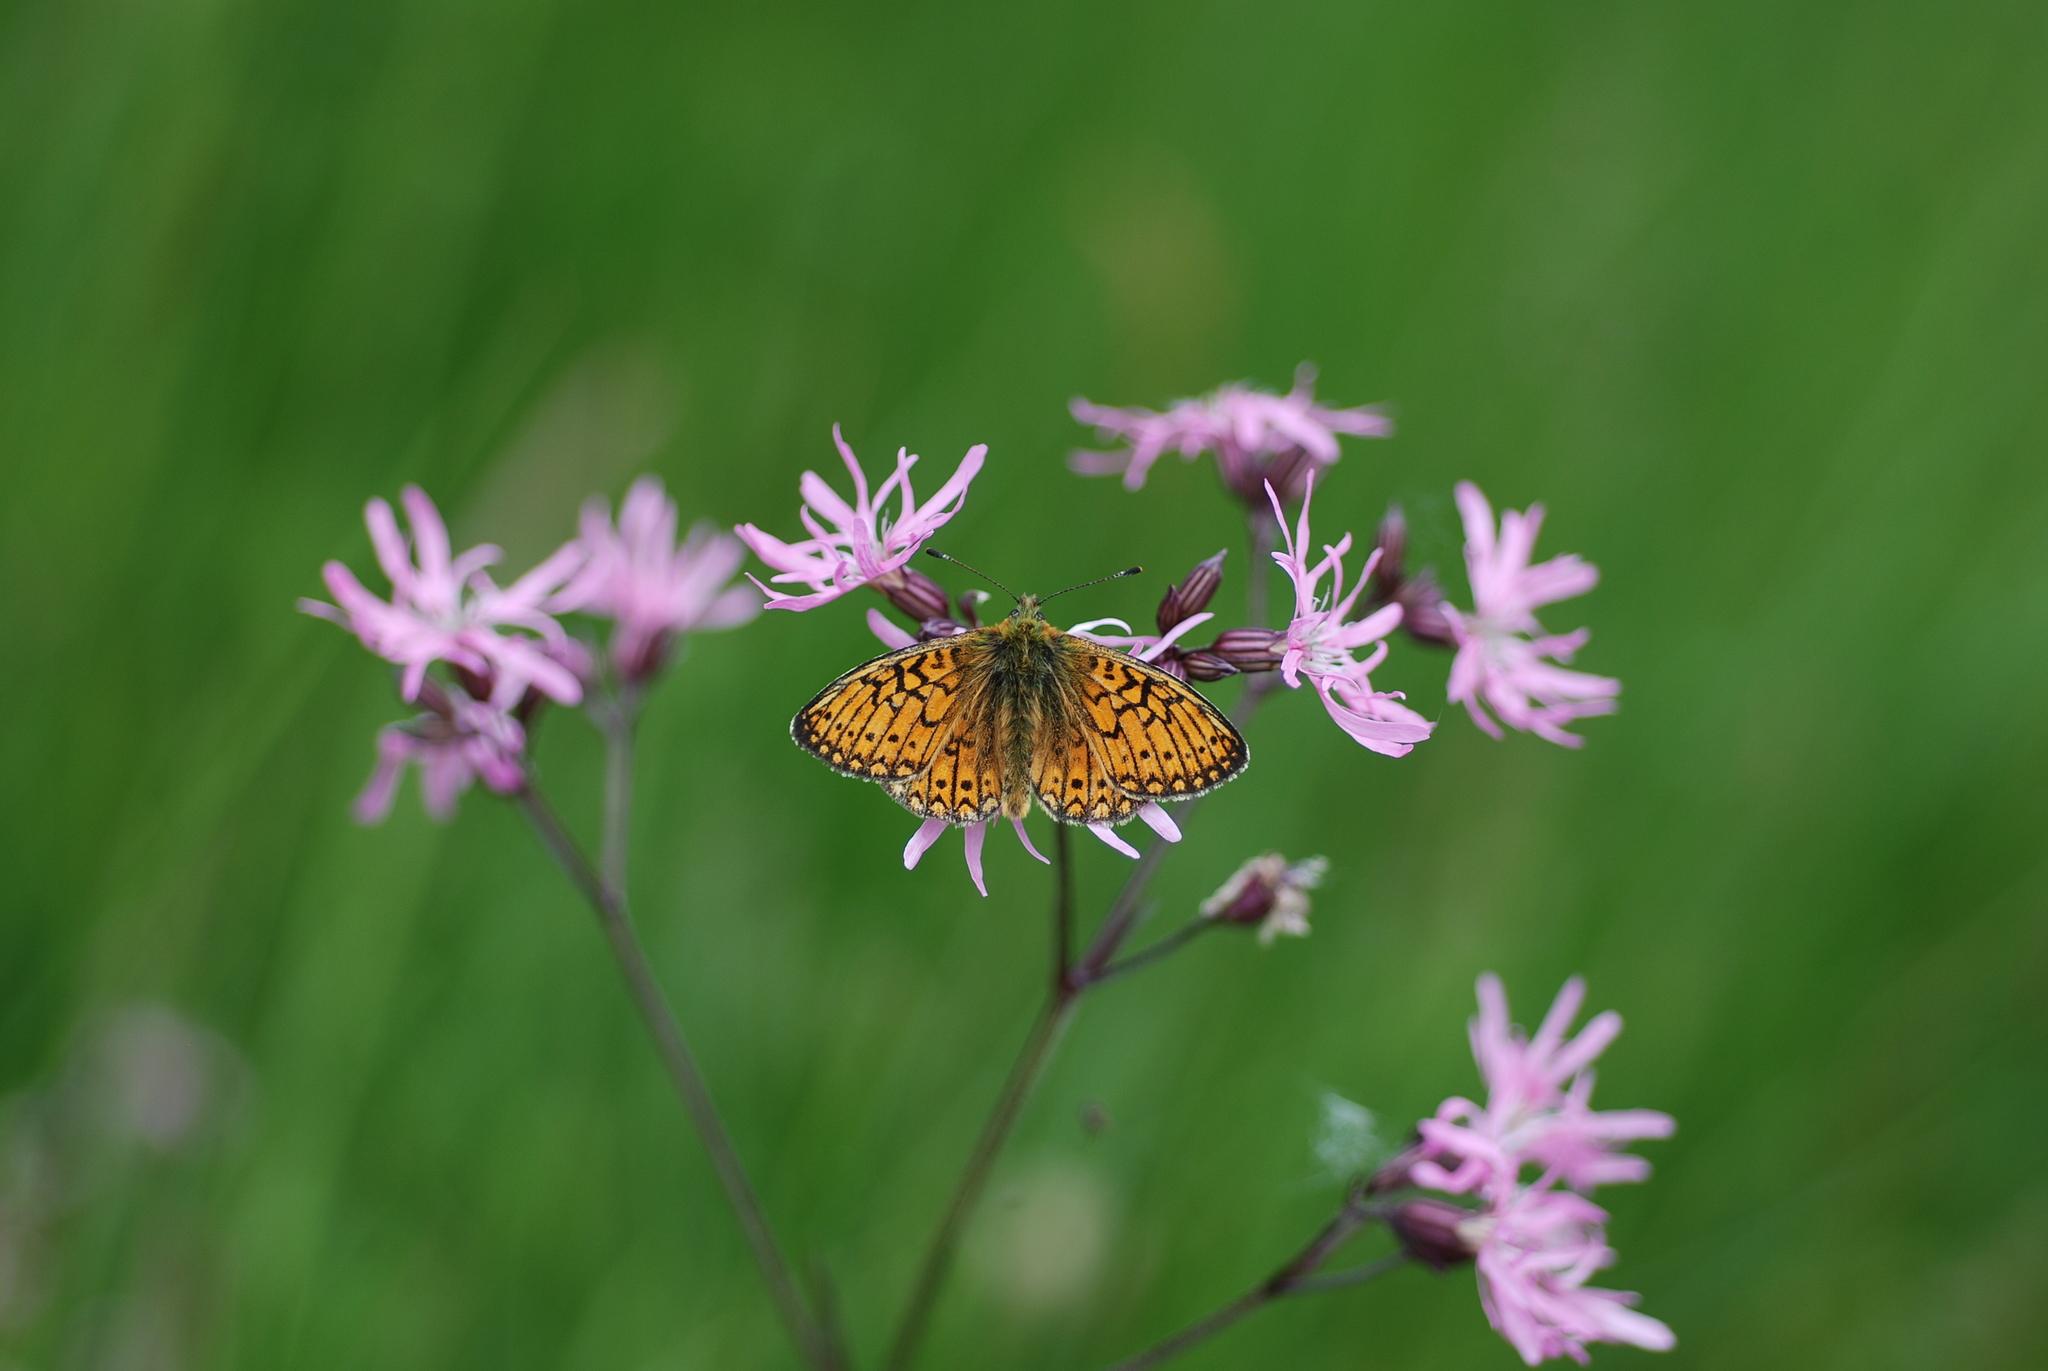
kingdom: Animalia
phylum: Arthropoda
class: Insecta
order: Lepidoptera
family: Nymphalidae
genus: Boloria
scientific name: Boloria eunomia
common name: Bog fritillary
